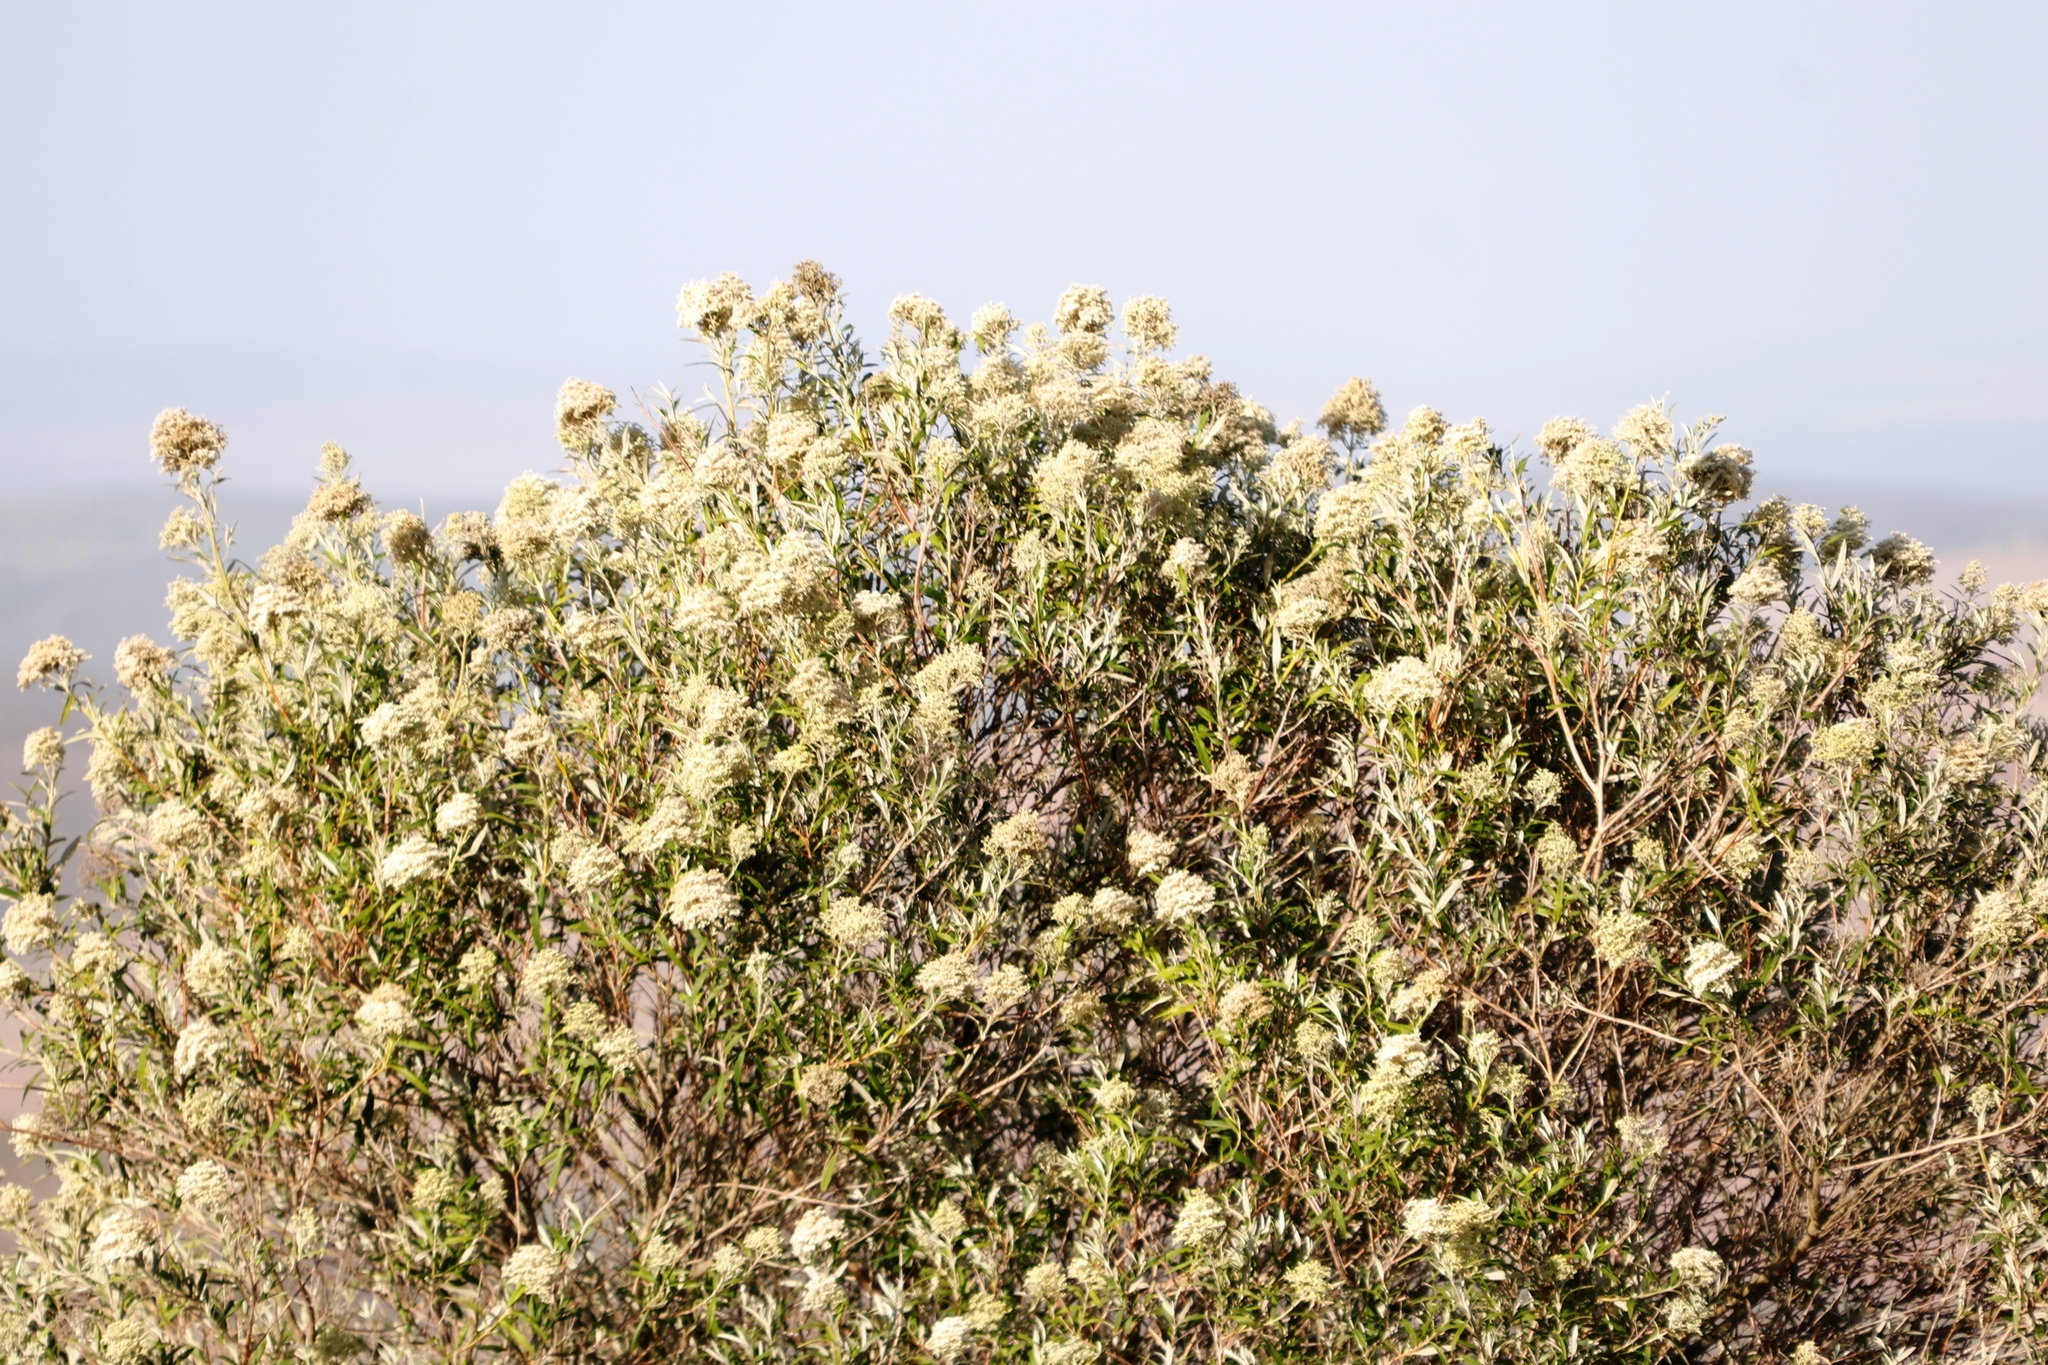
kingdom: Plantae
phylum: Tracheophyta
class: Magnoliopsida
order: Lamiales
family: Scrophulariaceae
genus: Buddleja
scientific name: Buddleja saligna
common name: False olive
